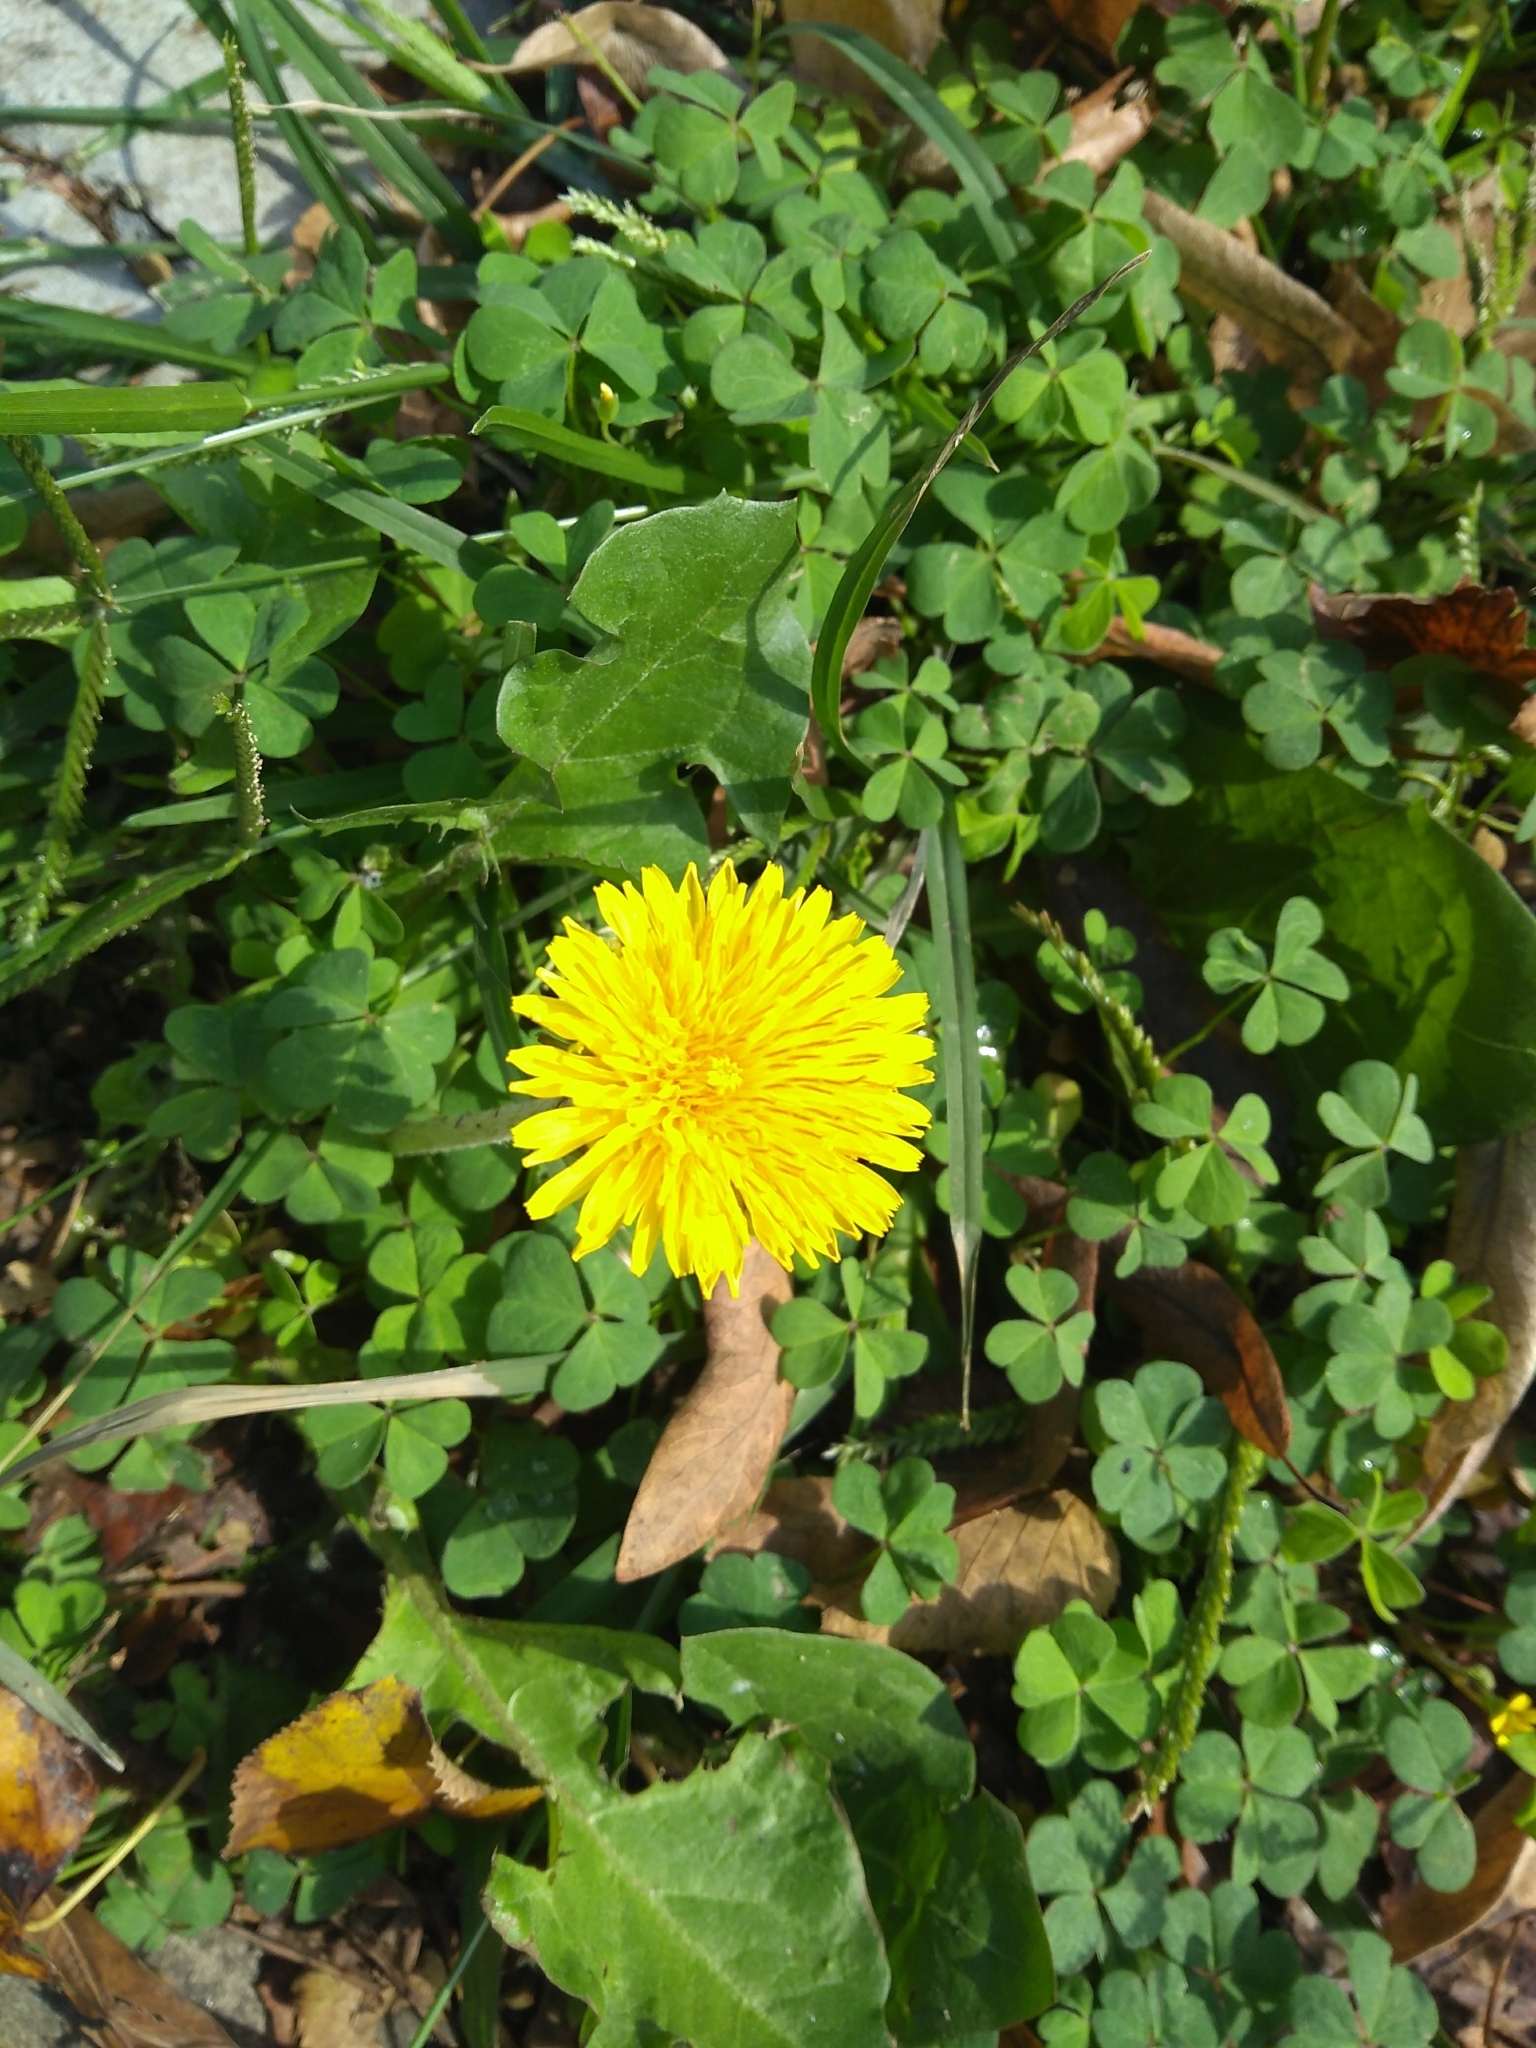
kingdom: Plantae
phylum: Tracheophyta
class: Magnoliopsida
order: Asterales
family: Asteraceae
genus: Taraxacum
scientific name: Taraxacum officinale
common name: Common dandelion
